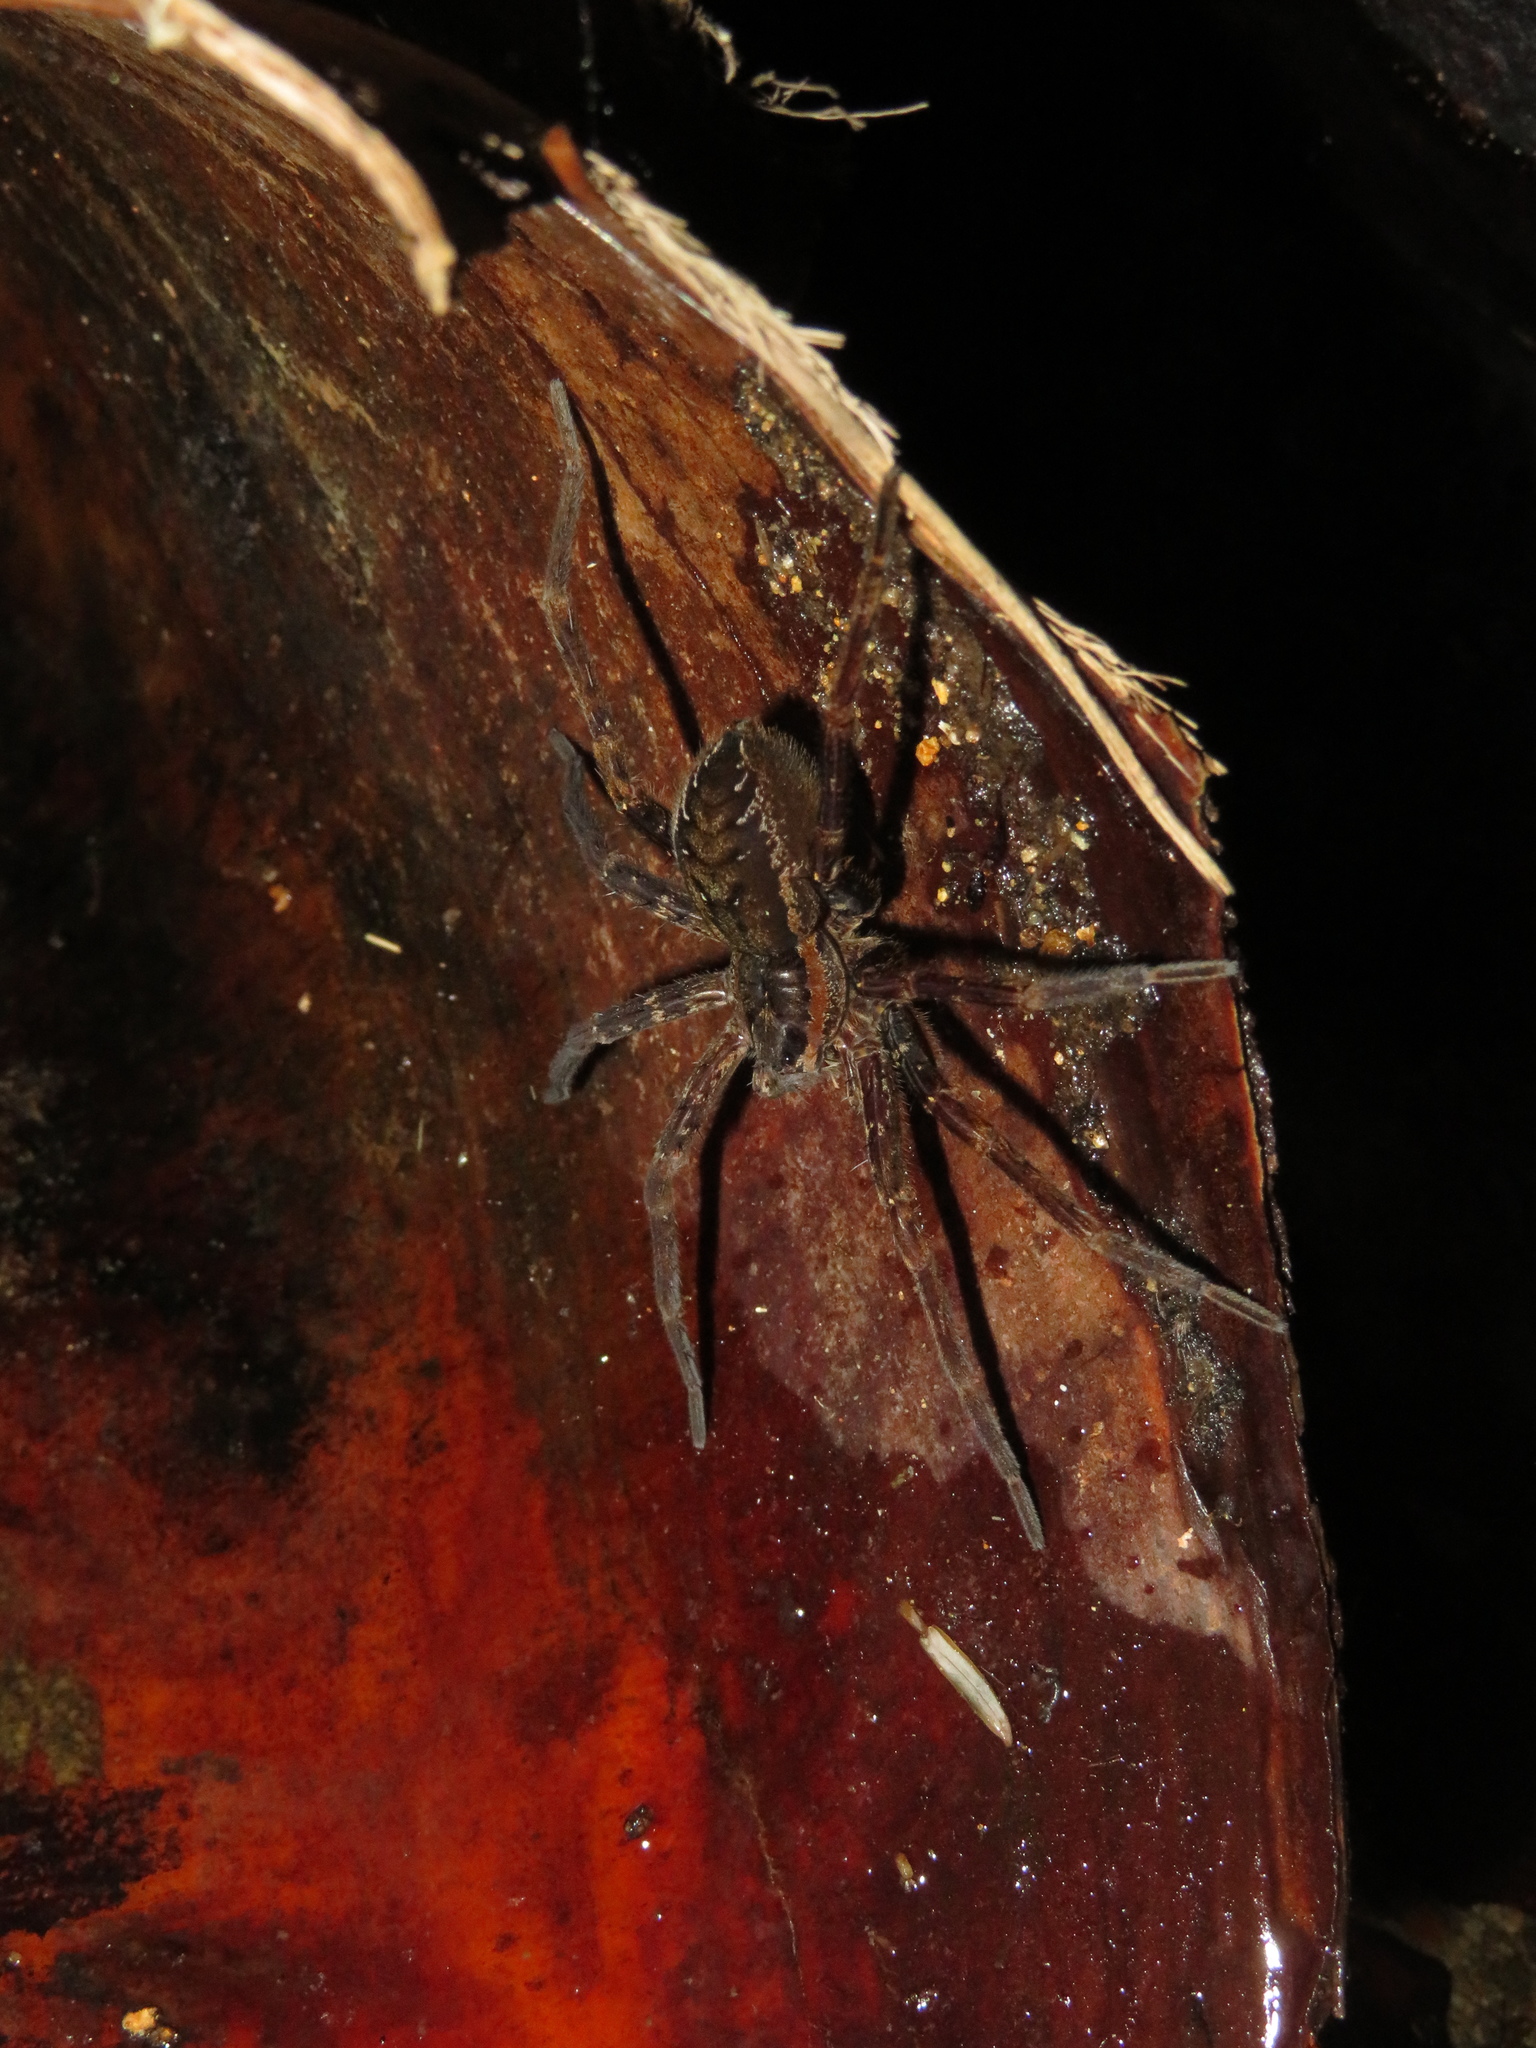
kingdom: Animalia
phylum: Arthropoda
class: Arachnida
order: Araneae
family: Pisauridae
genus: Dolomedes
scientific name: Dolomedes dondalei
